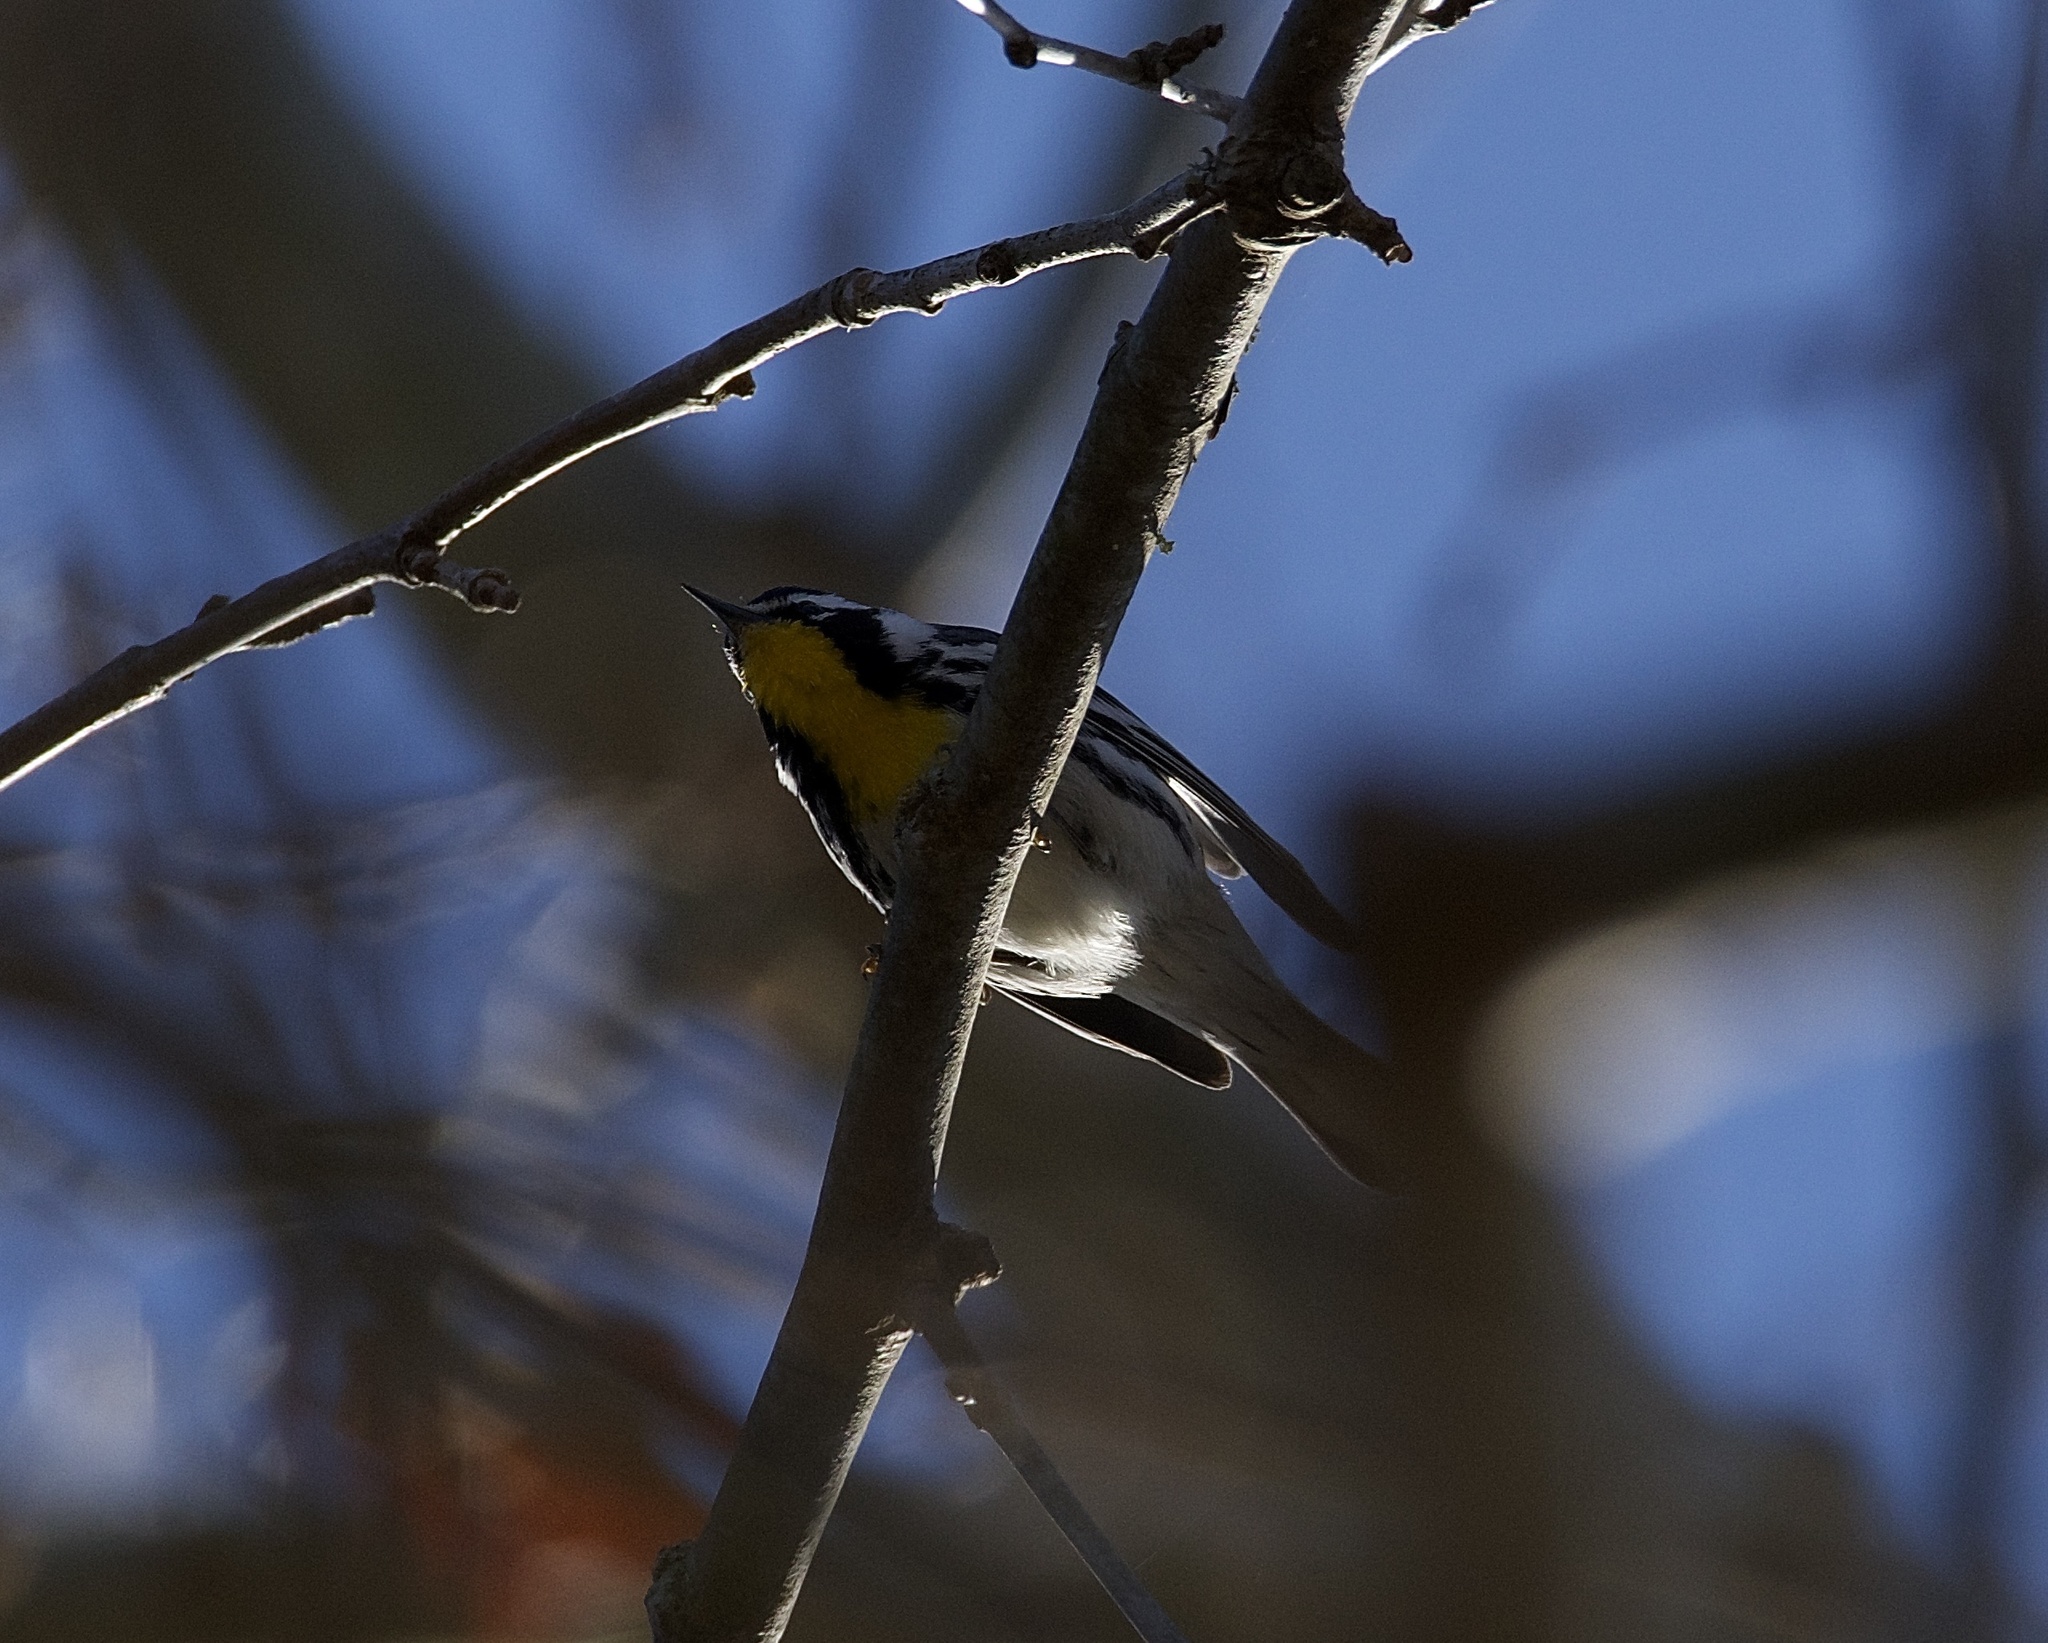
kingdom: Animalia
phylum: Chordata
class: Aves
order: Passeriformes
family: Parulidae
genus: Setophaga
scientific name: Setophaga dominica
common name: Yellow-throated warbler
